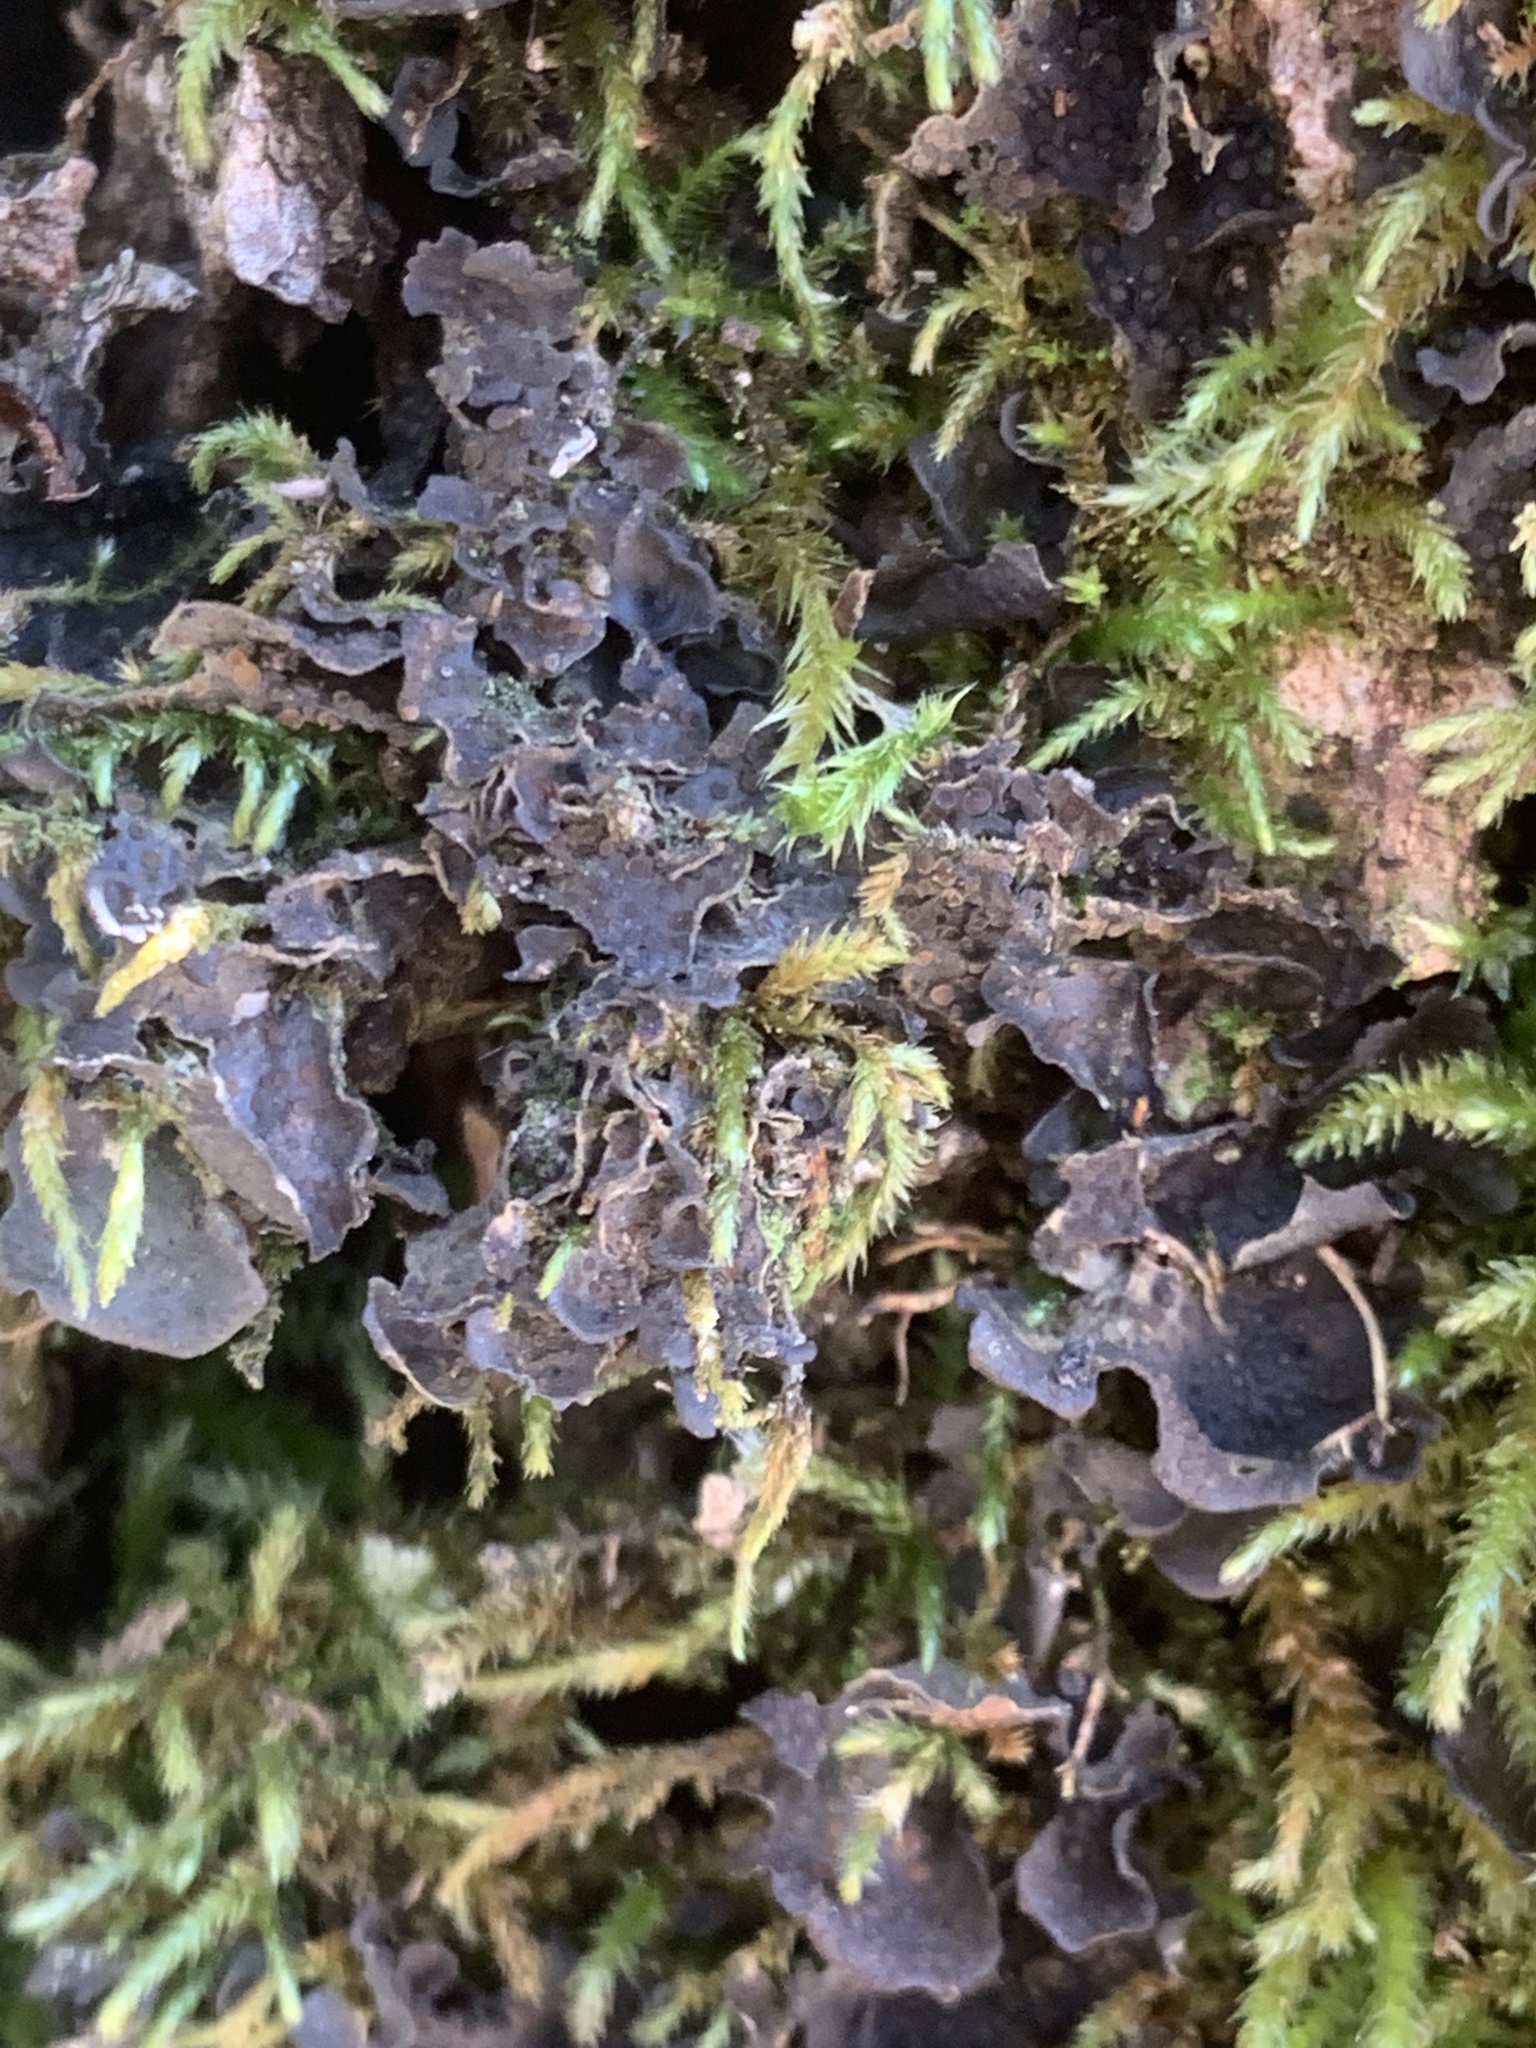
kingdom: Fungi
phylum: Ascomycota
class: Lecanoromycetes
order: Peltigerales
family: Collemataceae
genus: Scytinium
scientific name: Scytinium polycarpum
